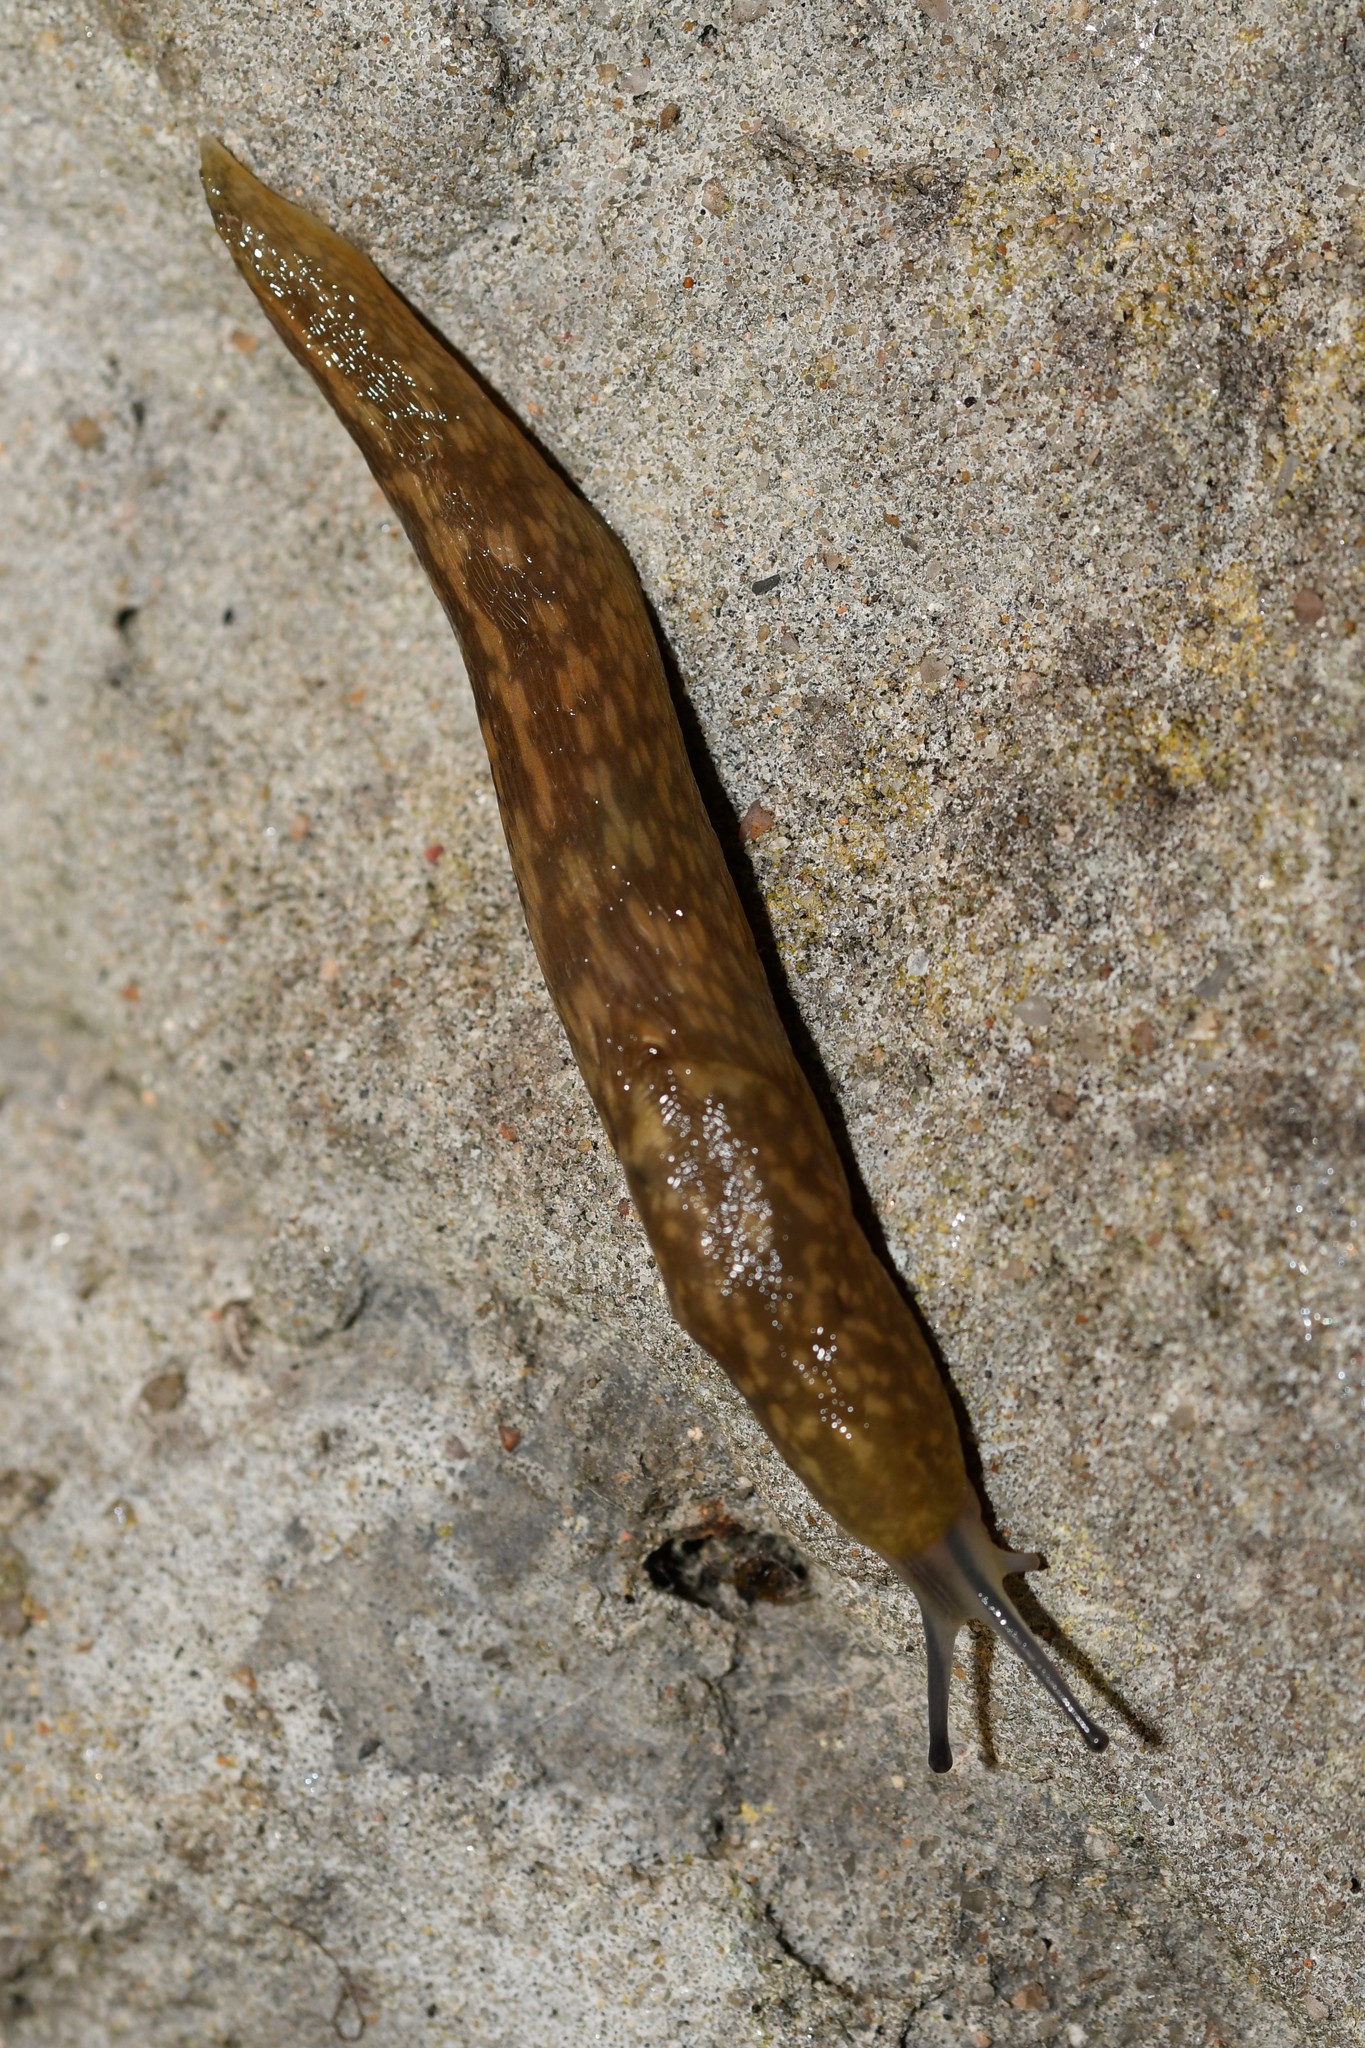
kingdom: Animalia
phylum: Mollusca
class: Gastropoda
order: Stylommatophora
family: Limacidae
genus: Limacus
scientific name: Limacus flavus
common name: Yellow gardenslug
